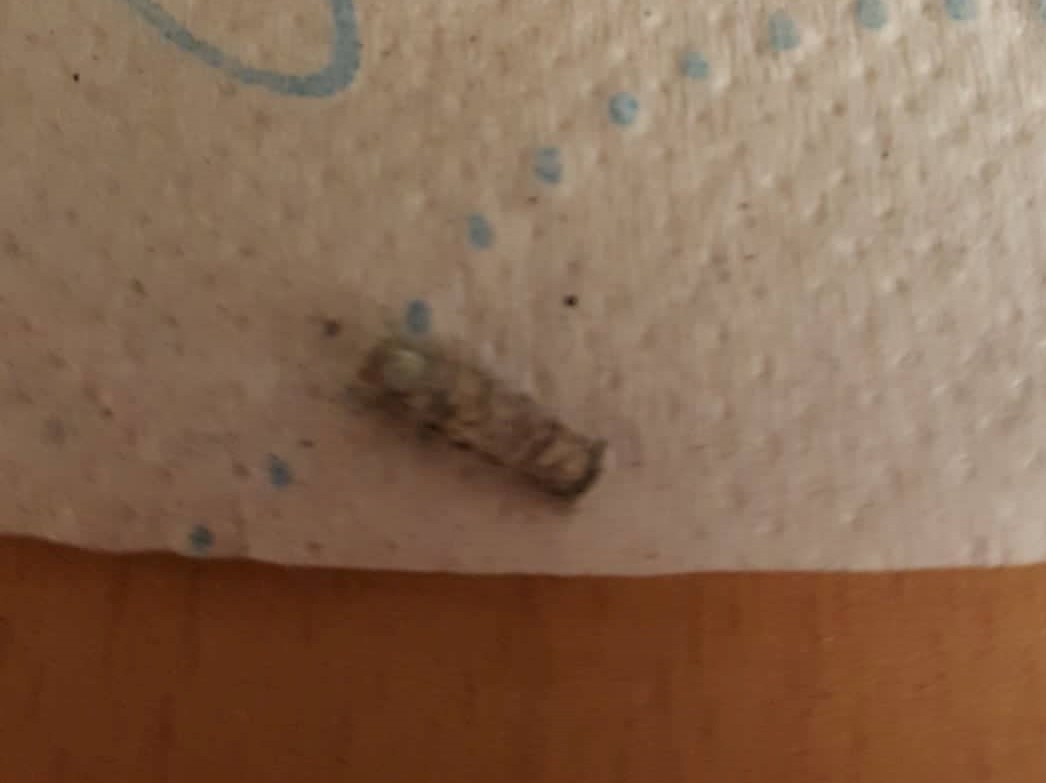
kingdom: Animalia
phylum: Arthropoda
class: Insecta
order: Lepidoptera
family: Tineidae
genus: Tinea
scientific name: Tinea pellionella
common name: Case-making clothes moth
